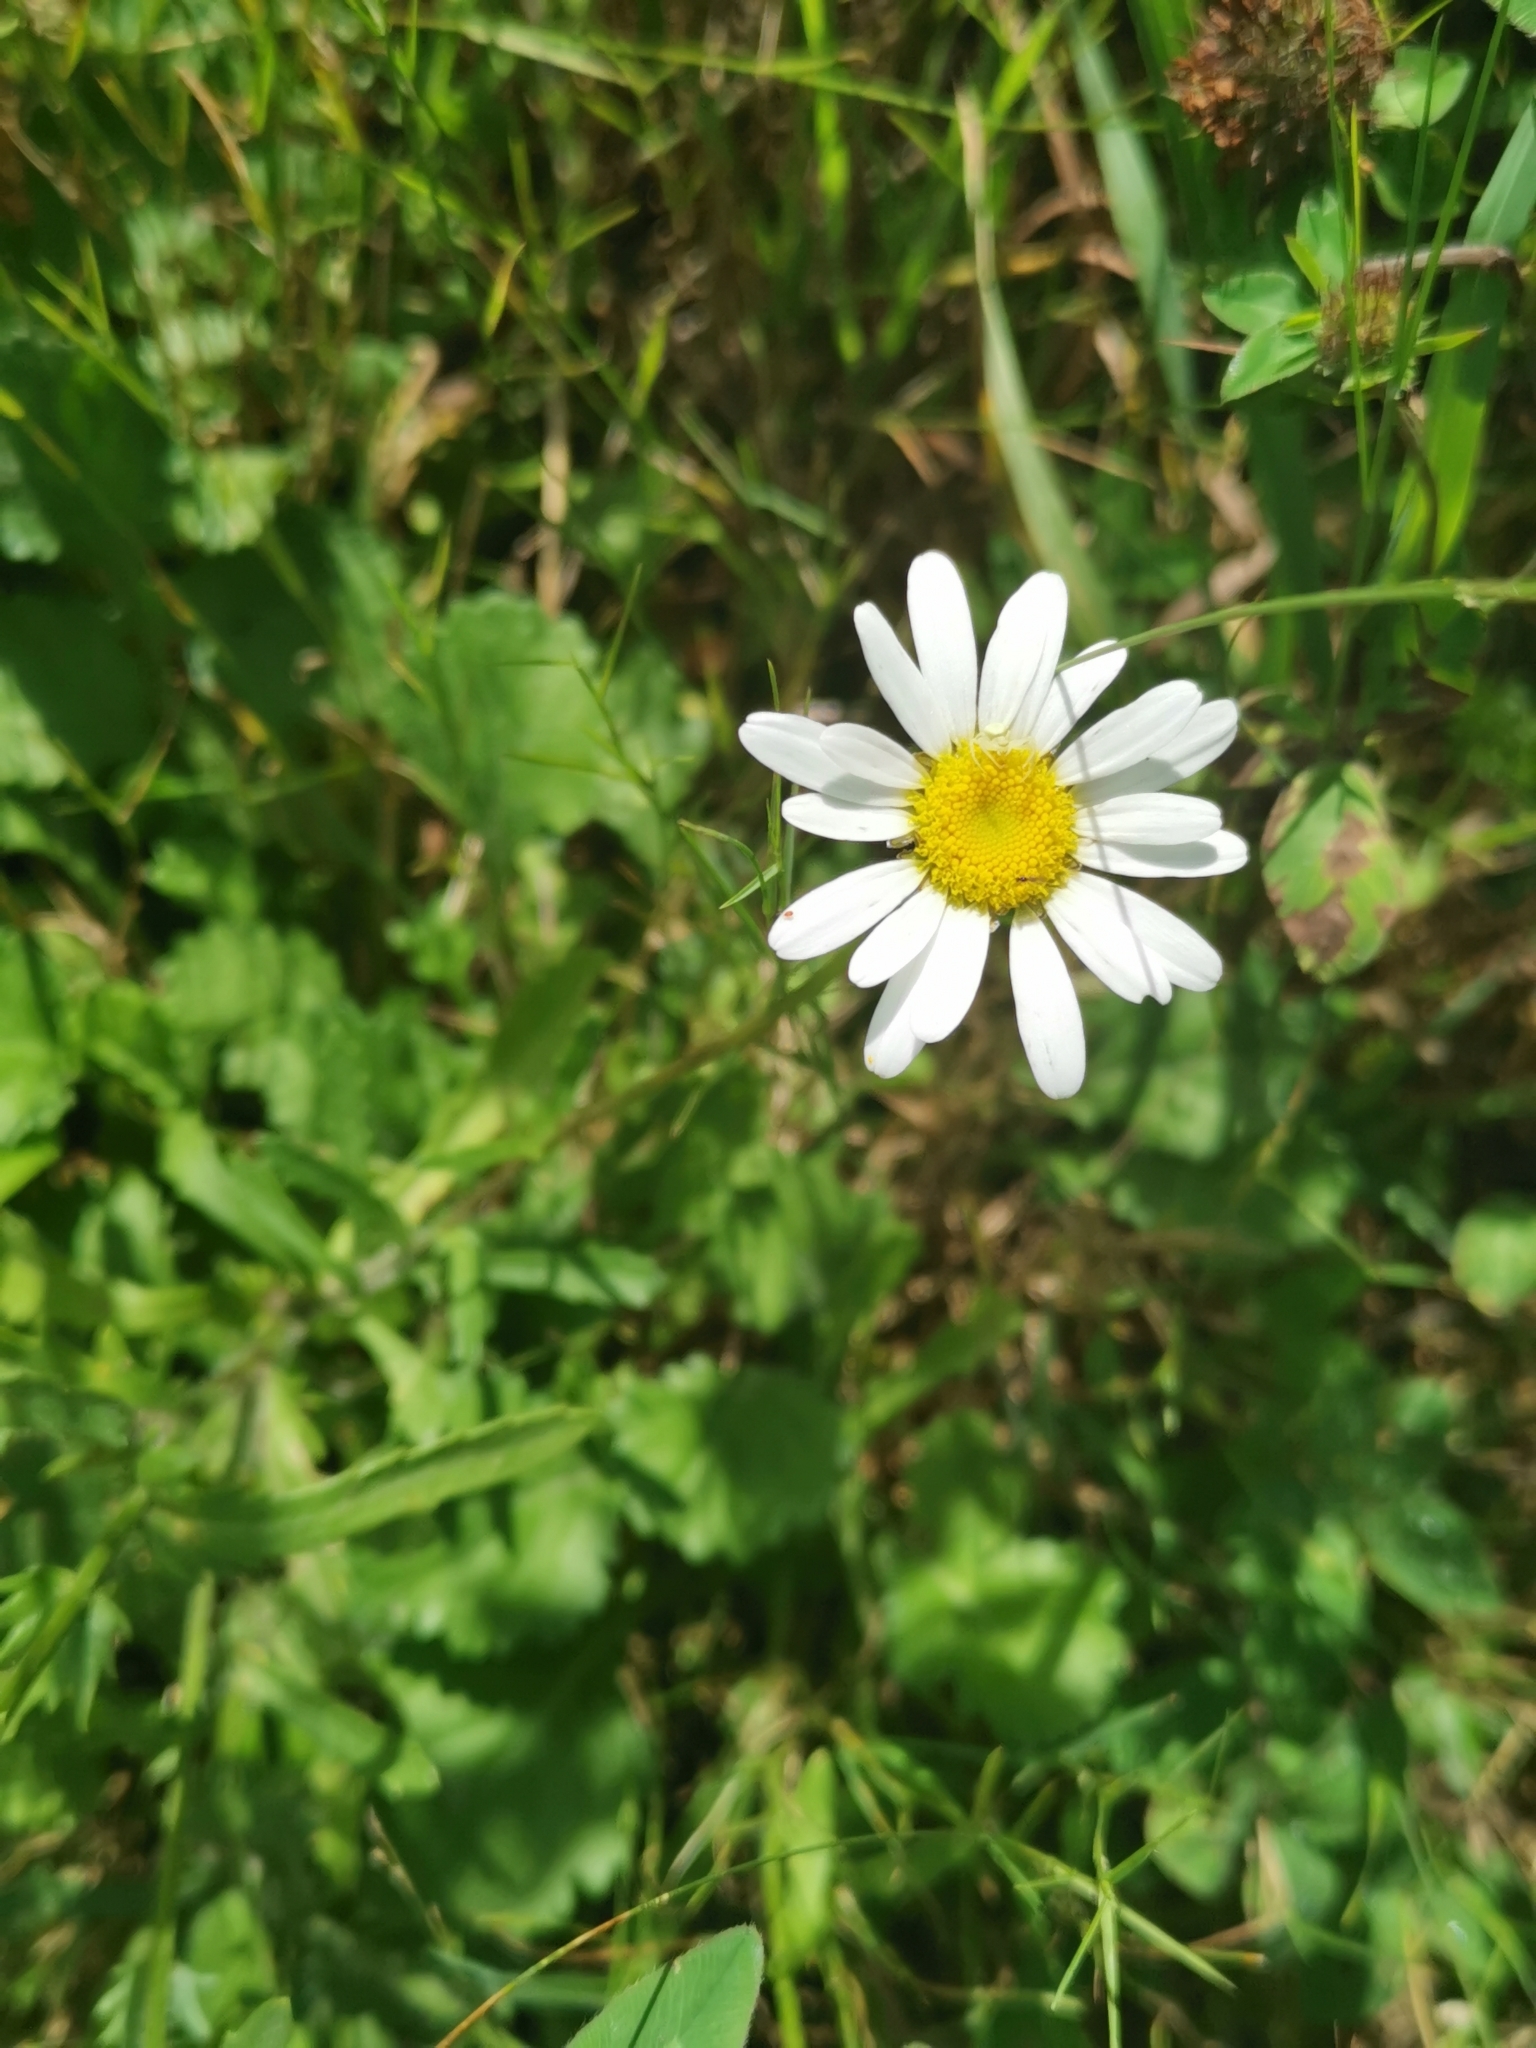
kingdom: Plantae
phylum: Tracheophyta
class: Magnoliopsida
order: Asterales
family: Asteraceae
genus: Leucanthemum
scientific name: Leucanthemum vulgare
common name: Oxeye daisy
